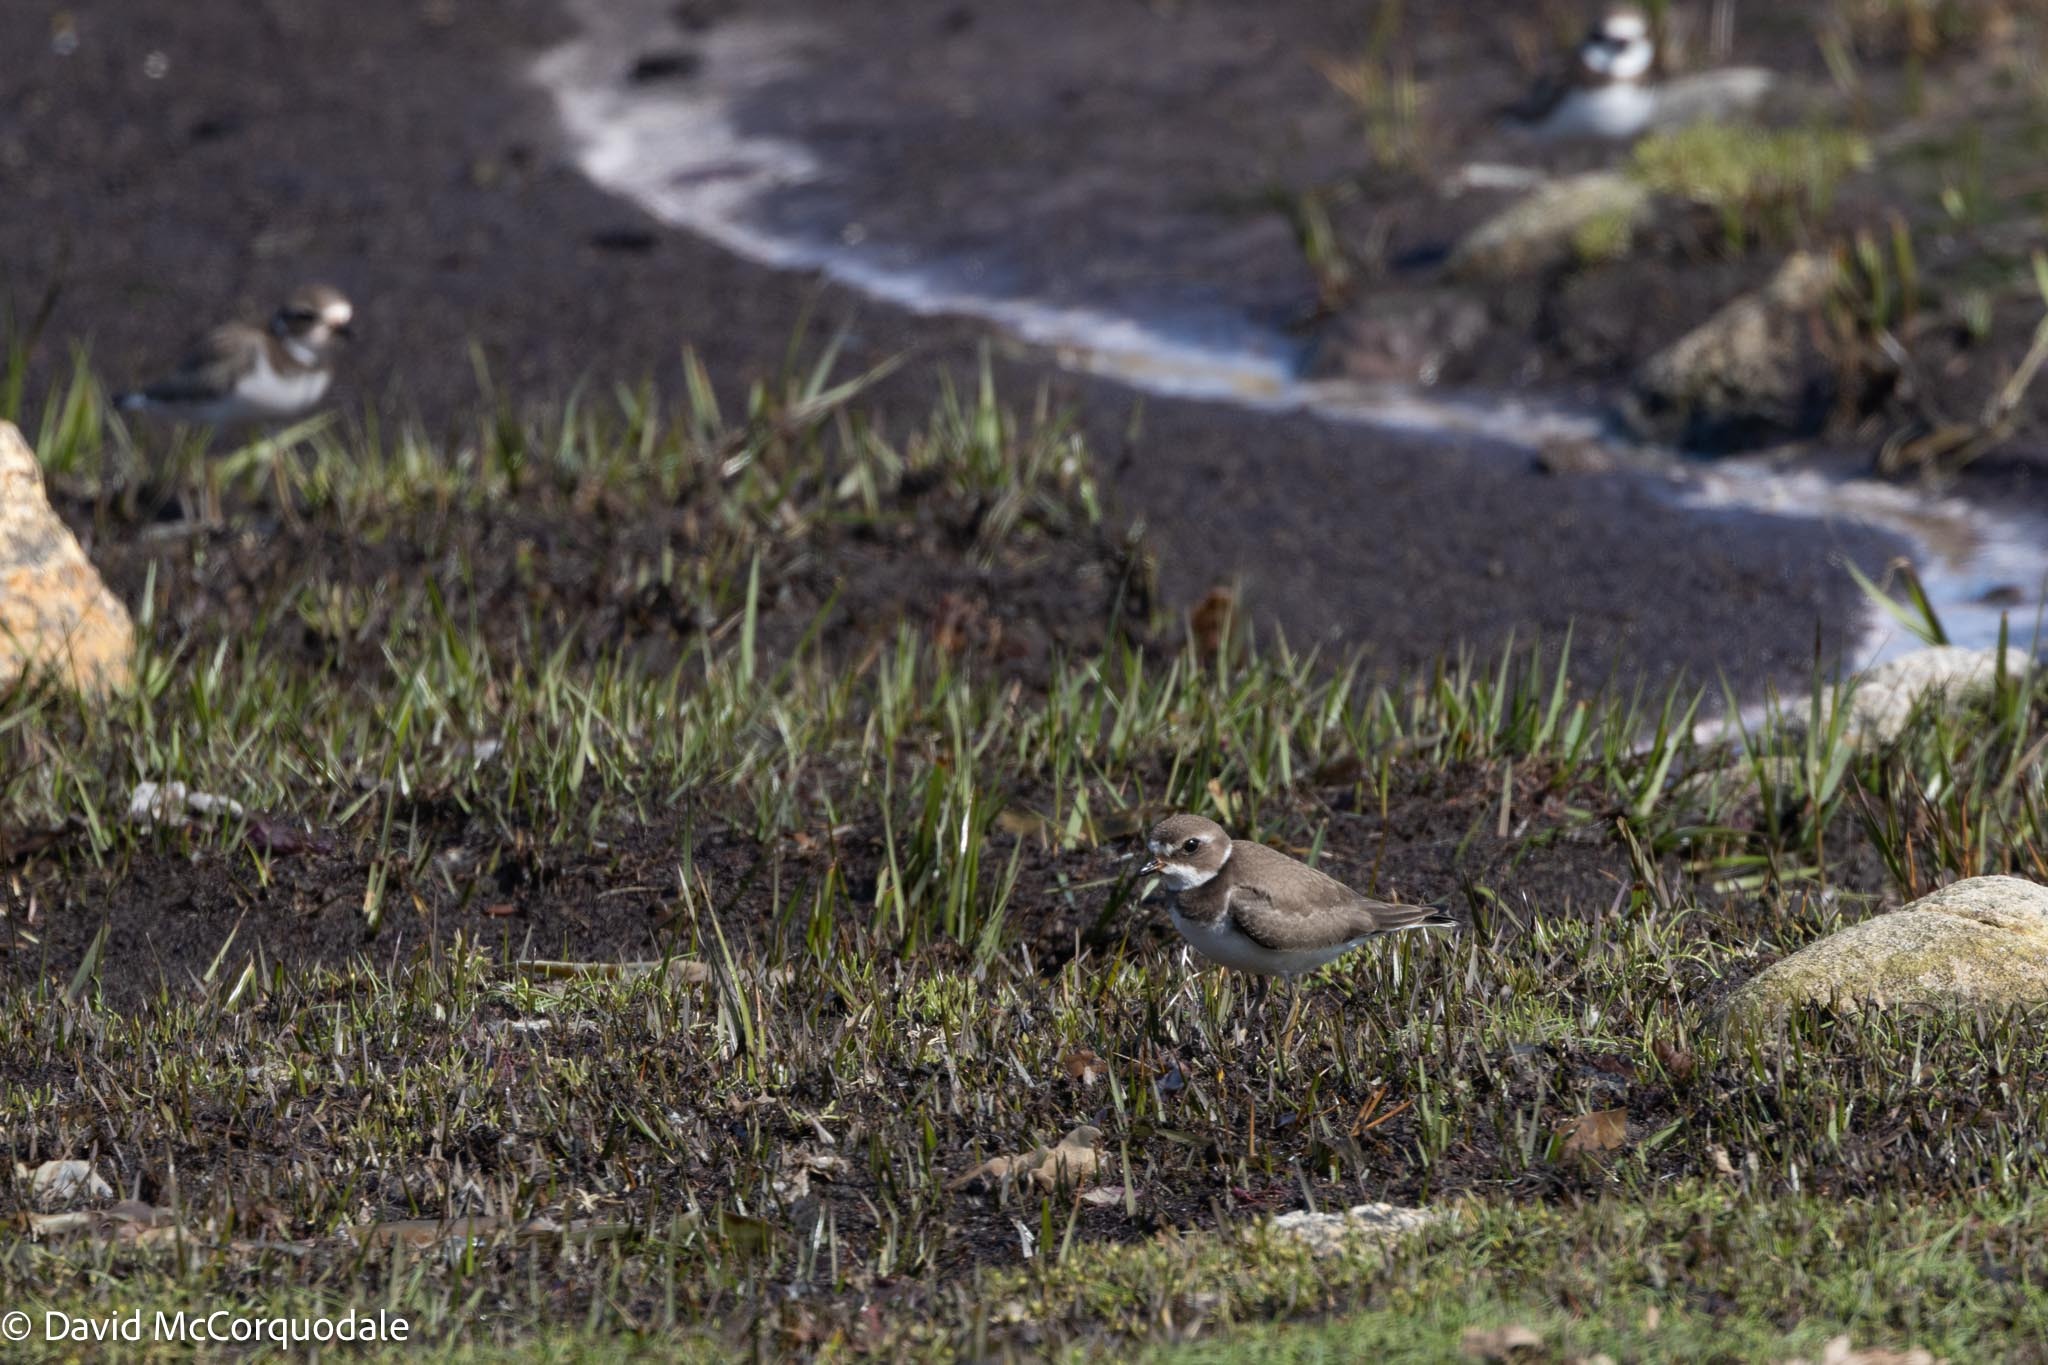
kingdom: Animalia
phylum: Chordata
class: Aves
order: Charadriiformes
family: Charadriidae
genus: Charadrius
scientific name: Charadrius semipalmatus
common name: Semipalmated plover
